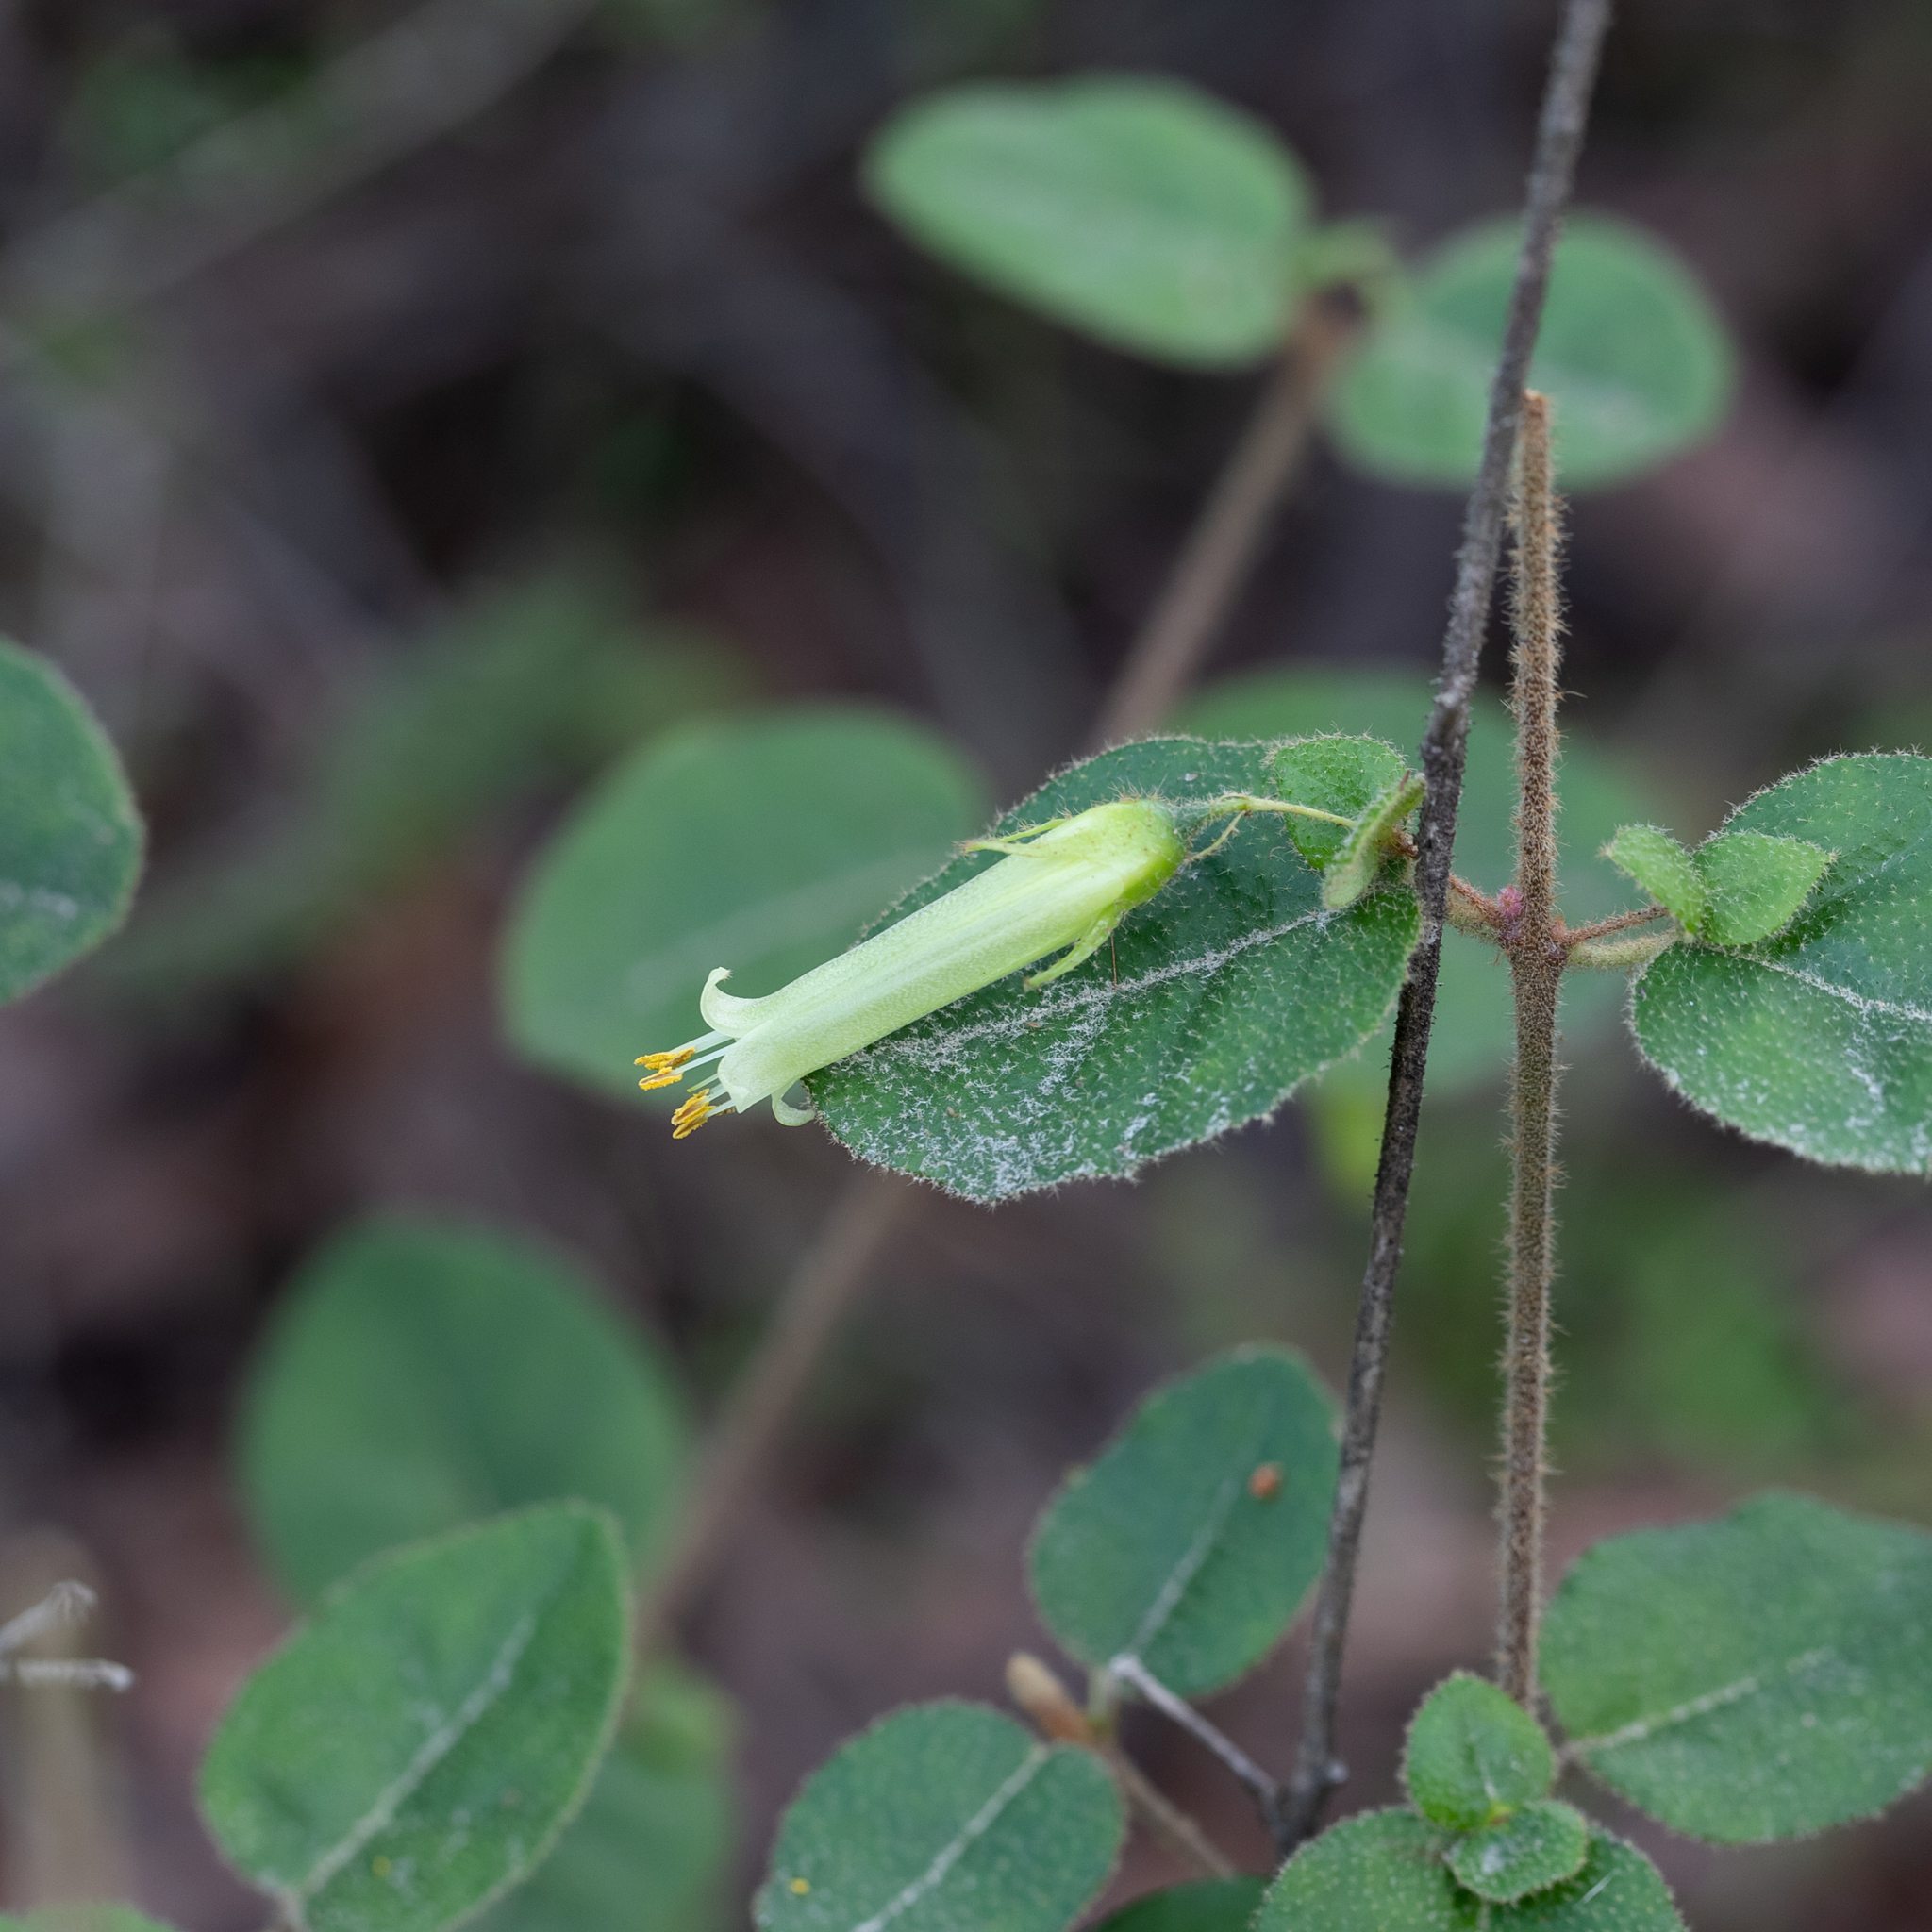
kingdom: Plantae
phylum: Tracheophyta
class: Magnoliopsida
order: Sapindales
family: Rutaceae
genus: Correa
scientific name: Correa aemula
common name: Hairy correa
